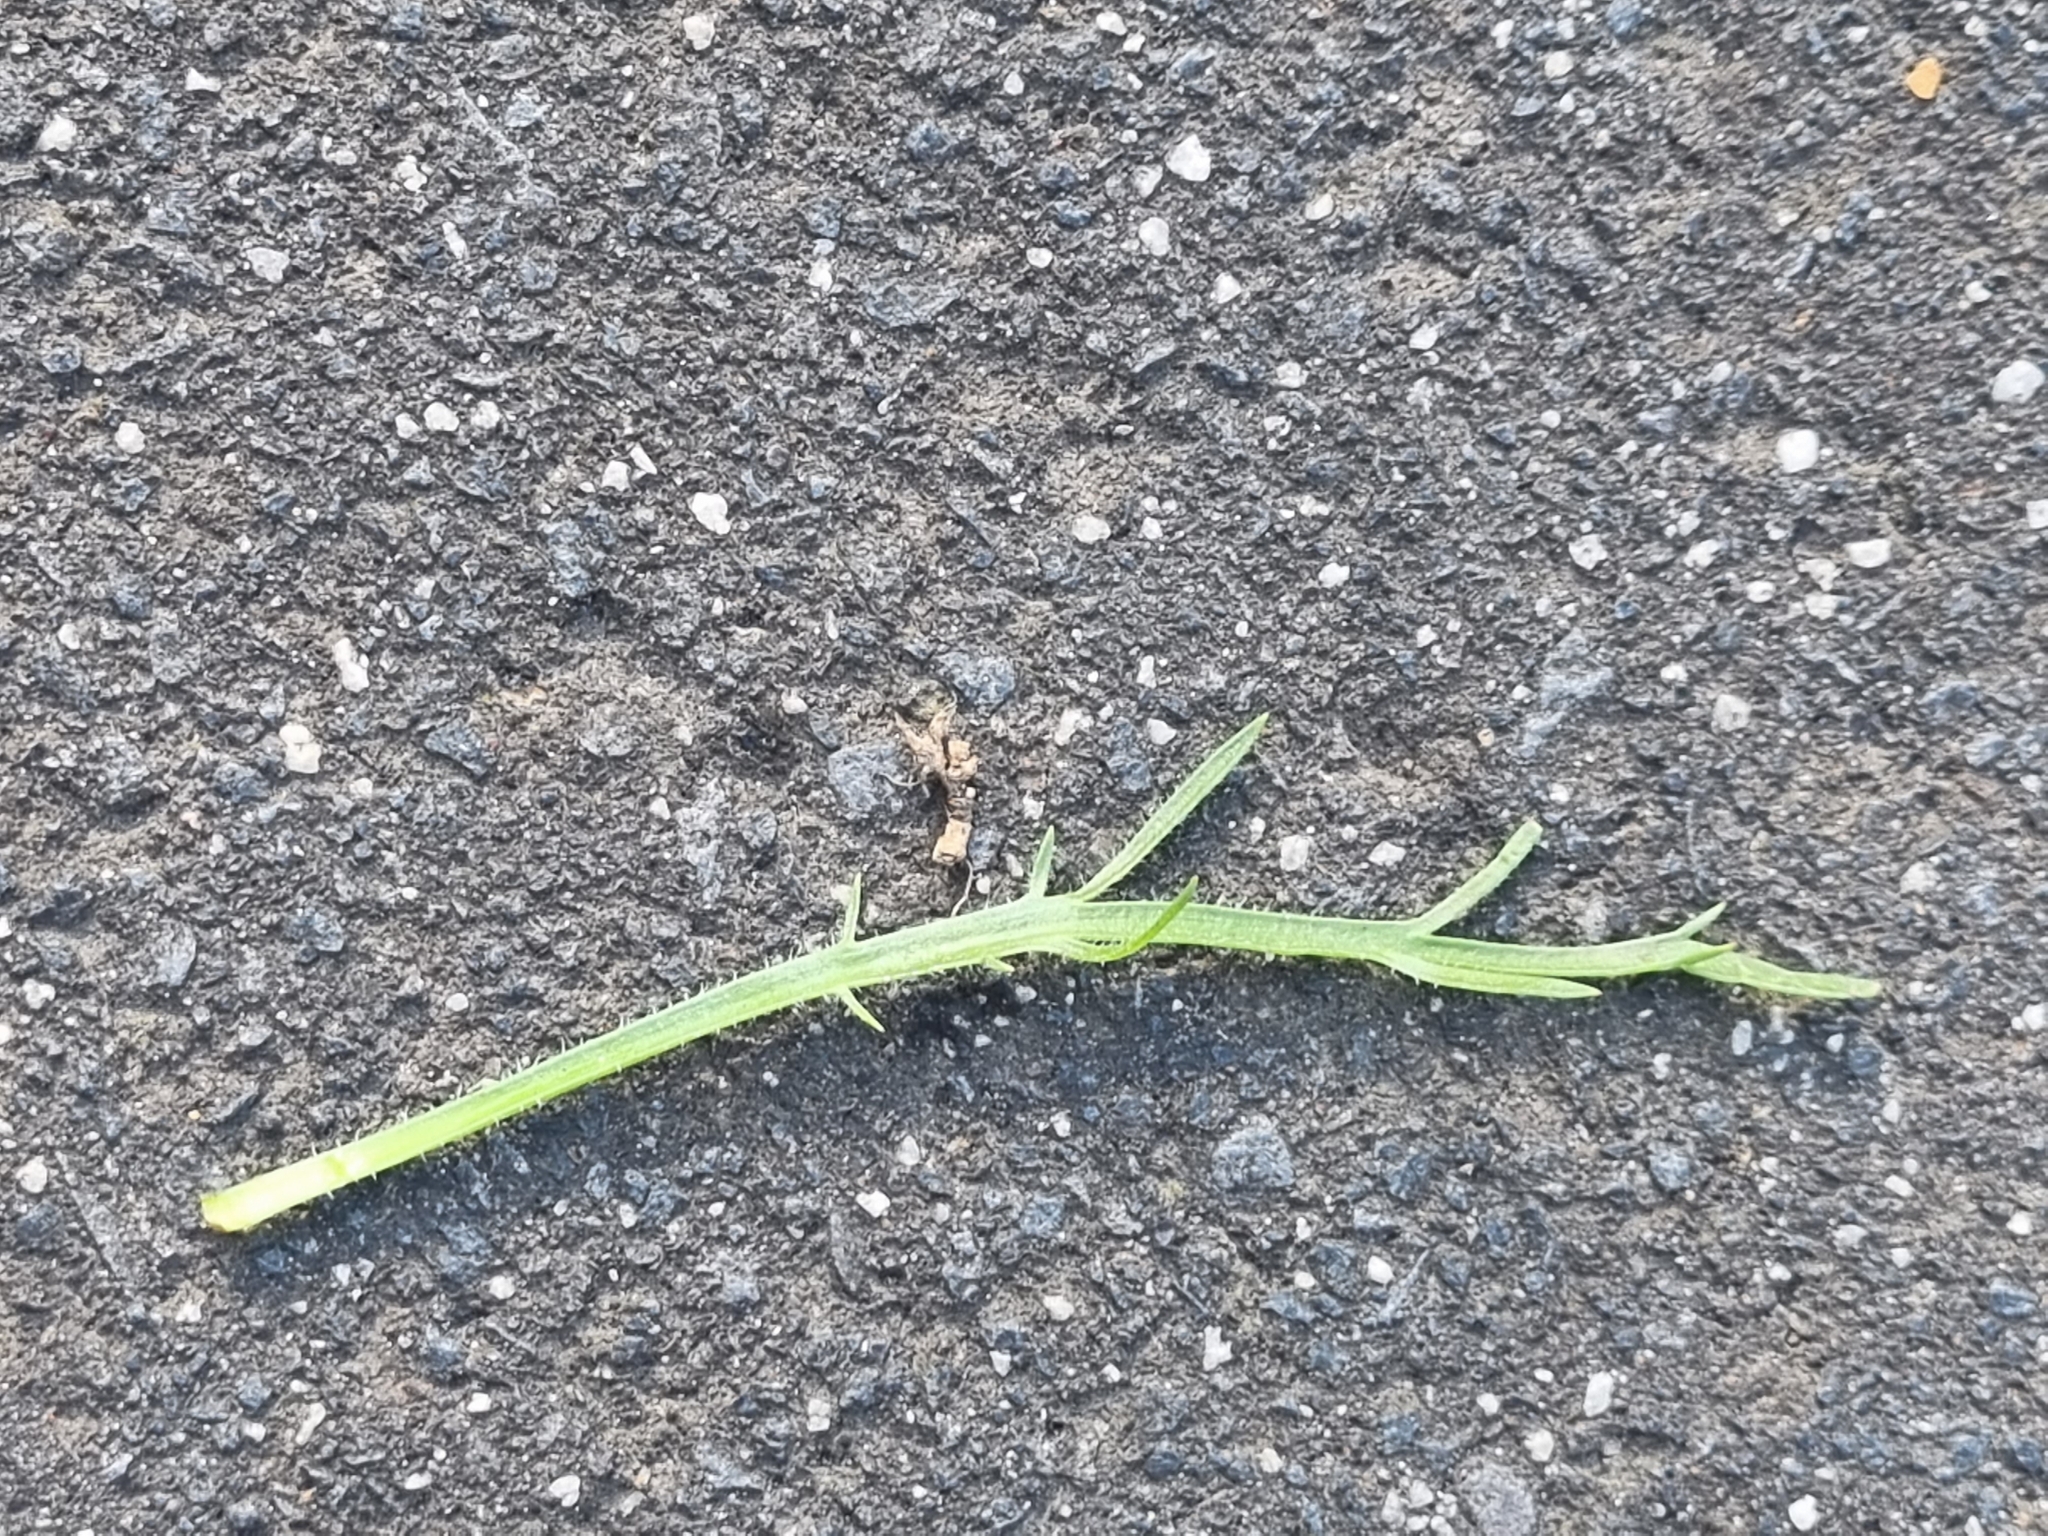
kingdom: Plantae
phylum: Tracheophyta
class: Magnoliopsida
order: Lamiales
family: Plantaginaceae
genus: Plantago
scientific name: Plantago coronopus
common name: Buck's-horn plantain
